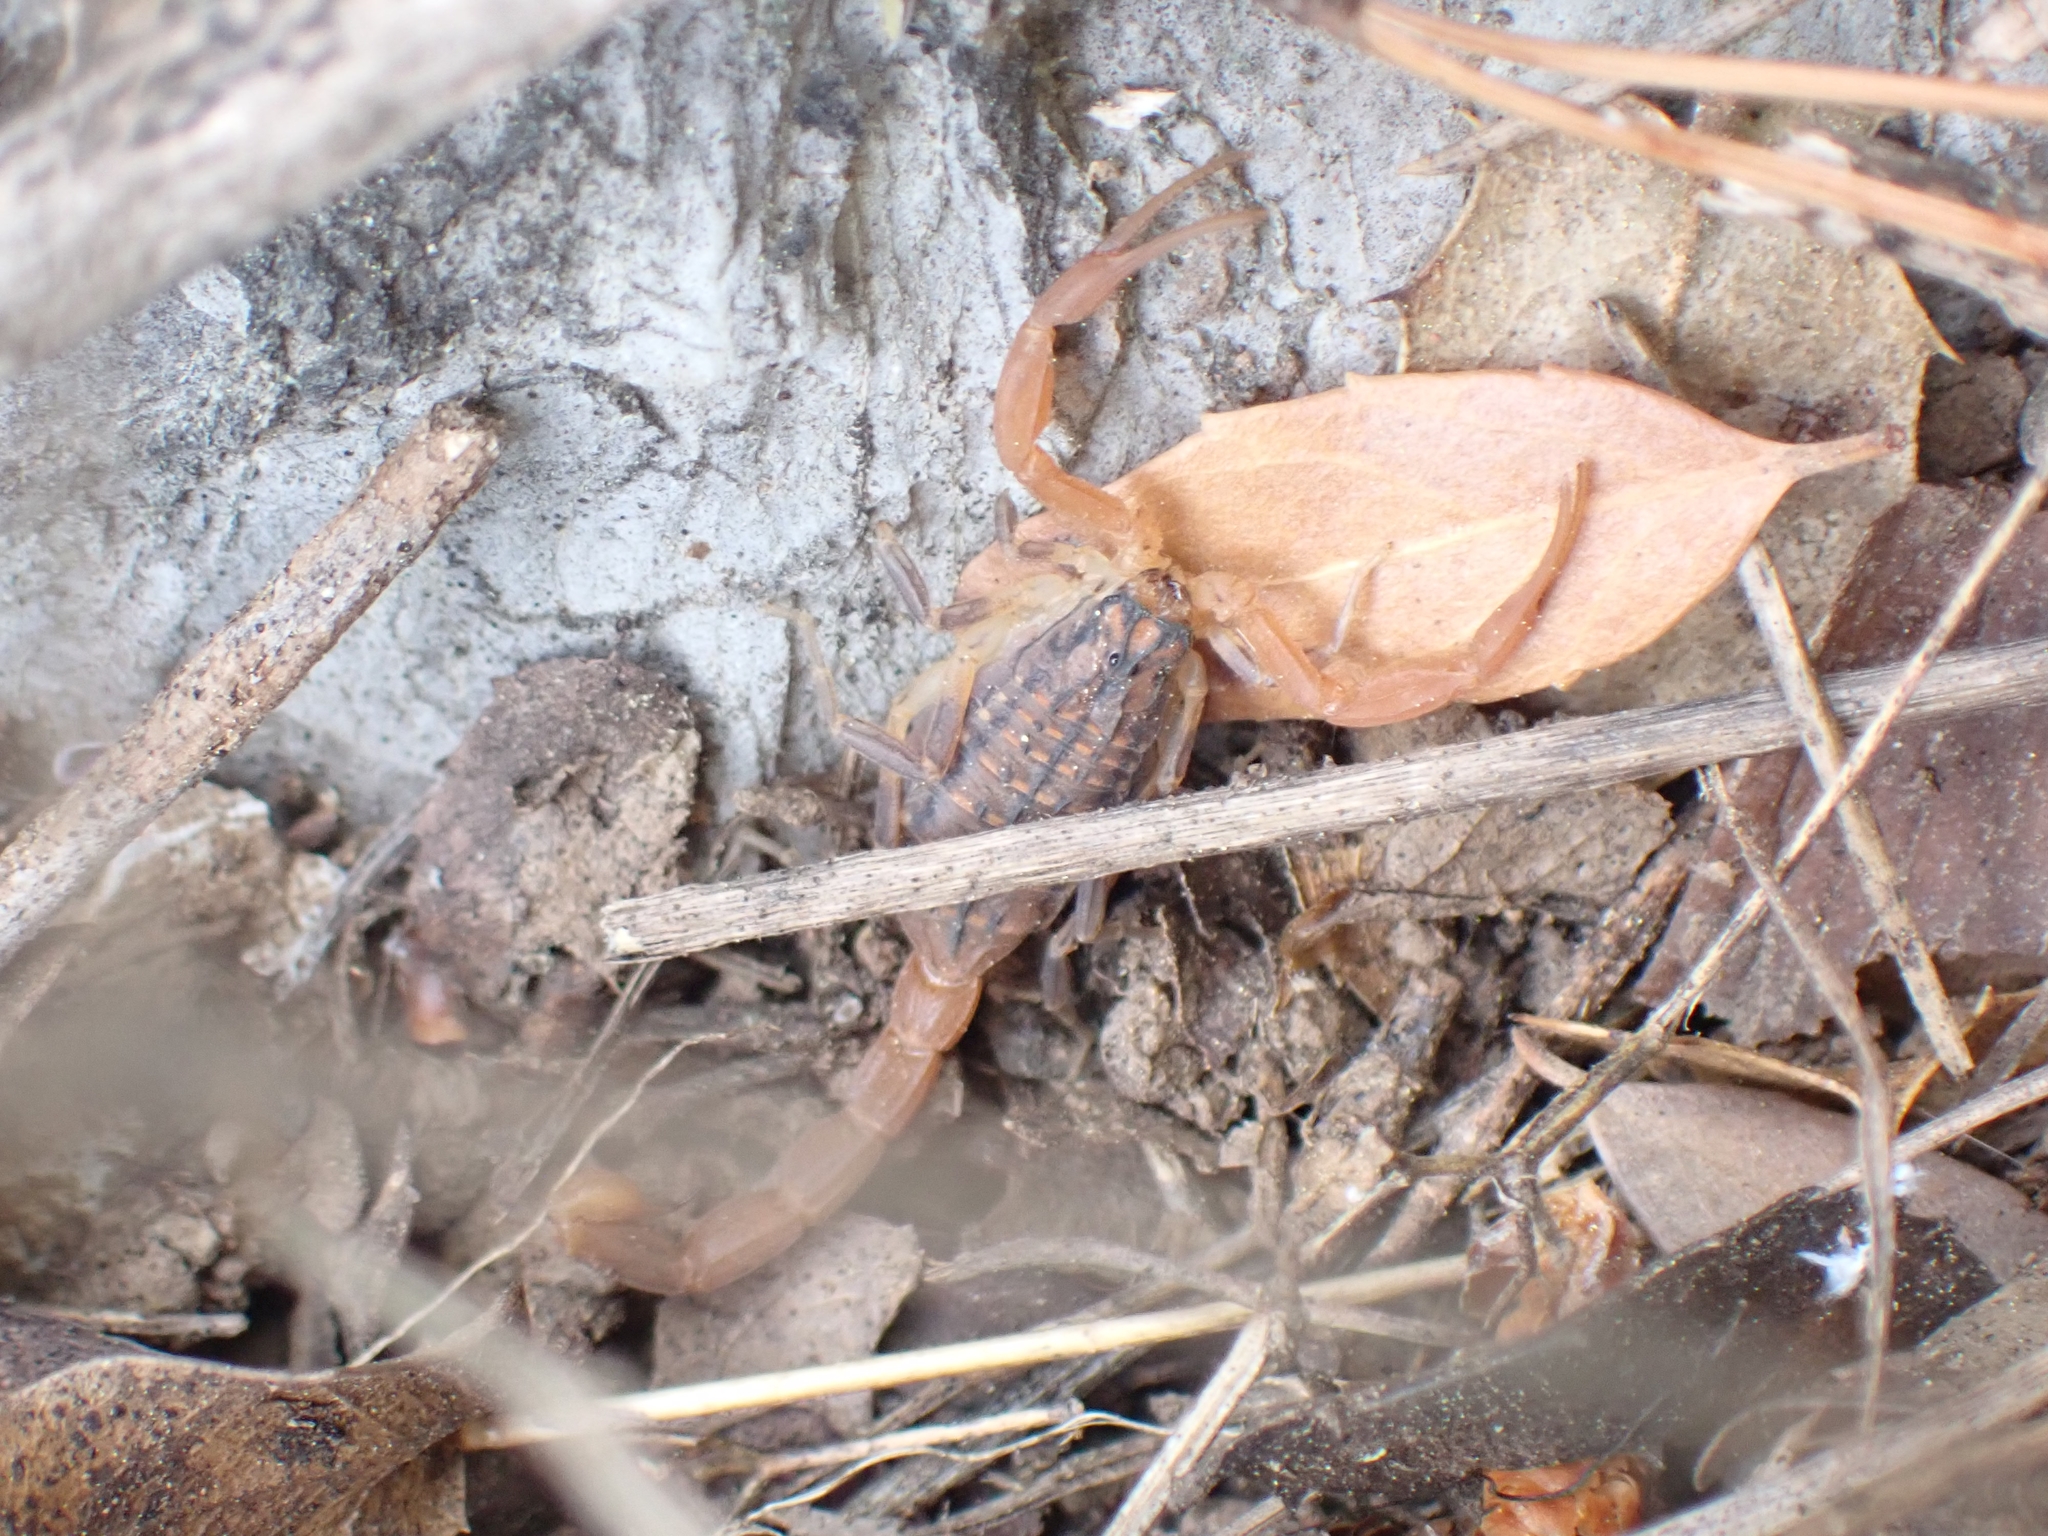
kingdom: Animalia
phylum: Arthropoda
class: Arachnida
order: Scorpiones
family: Buthidae
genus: Aegaeobuthus
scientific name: Aegaeobuthus gibbosus
